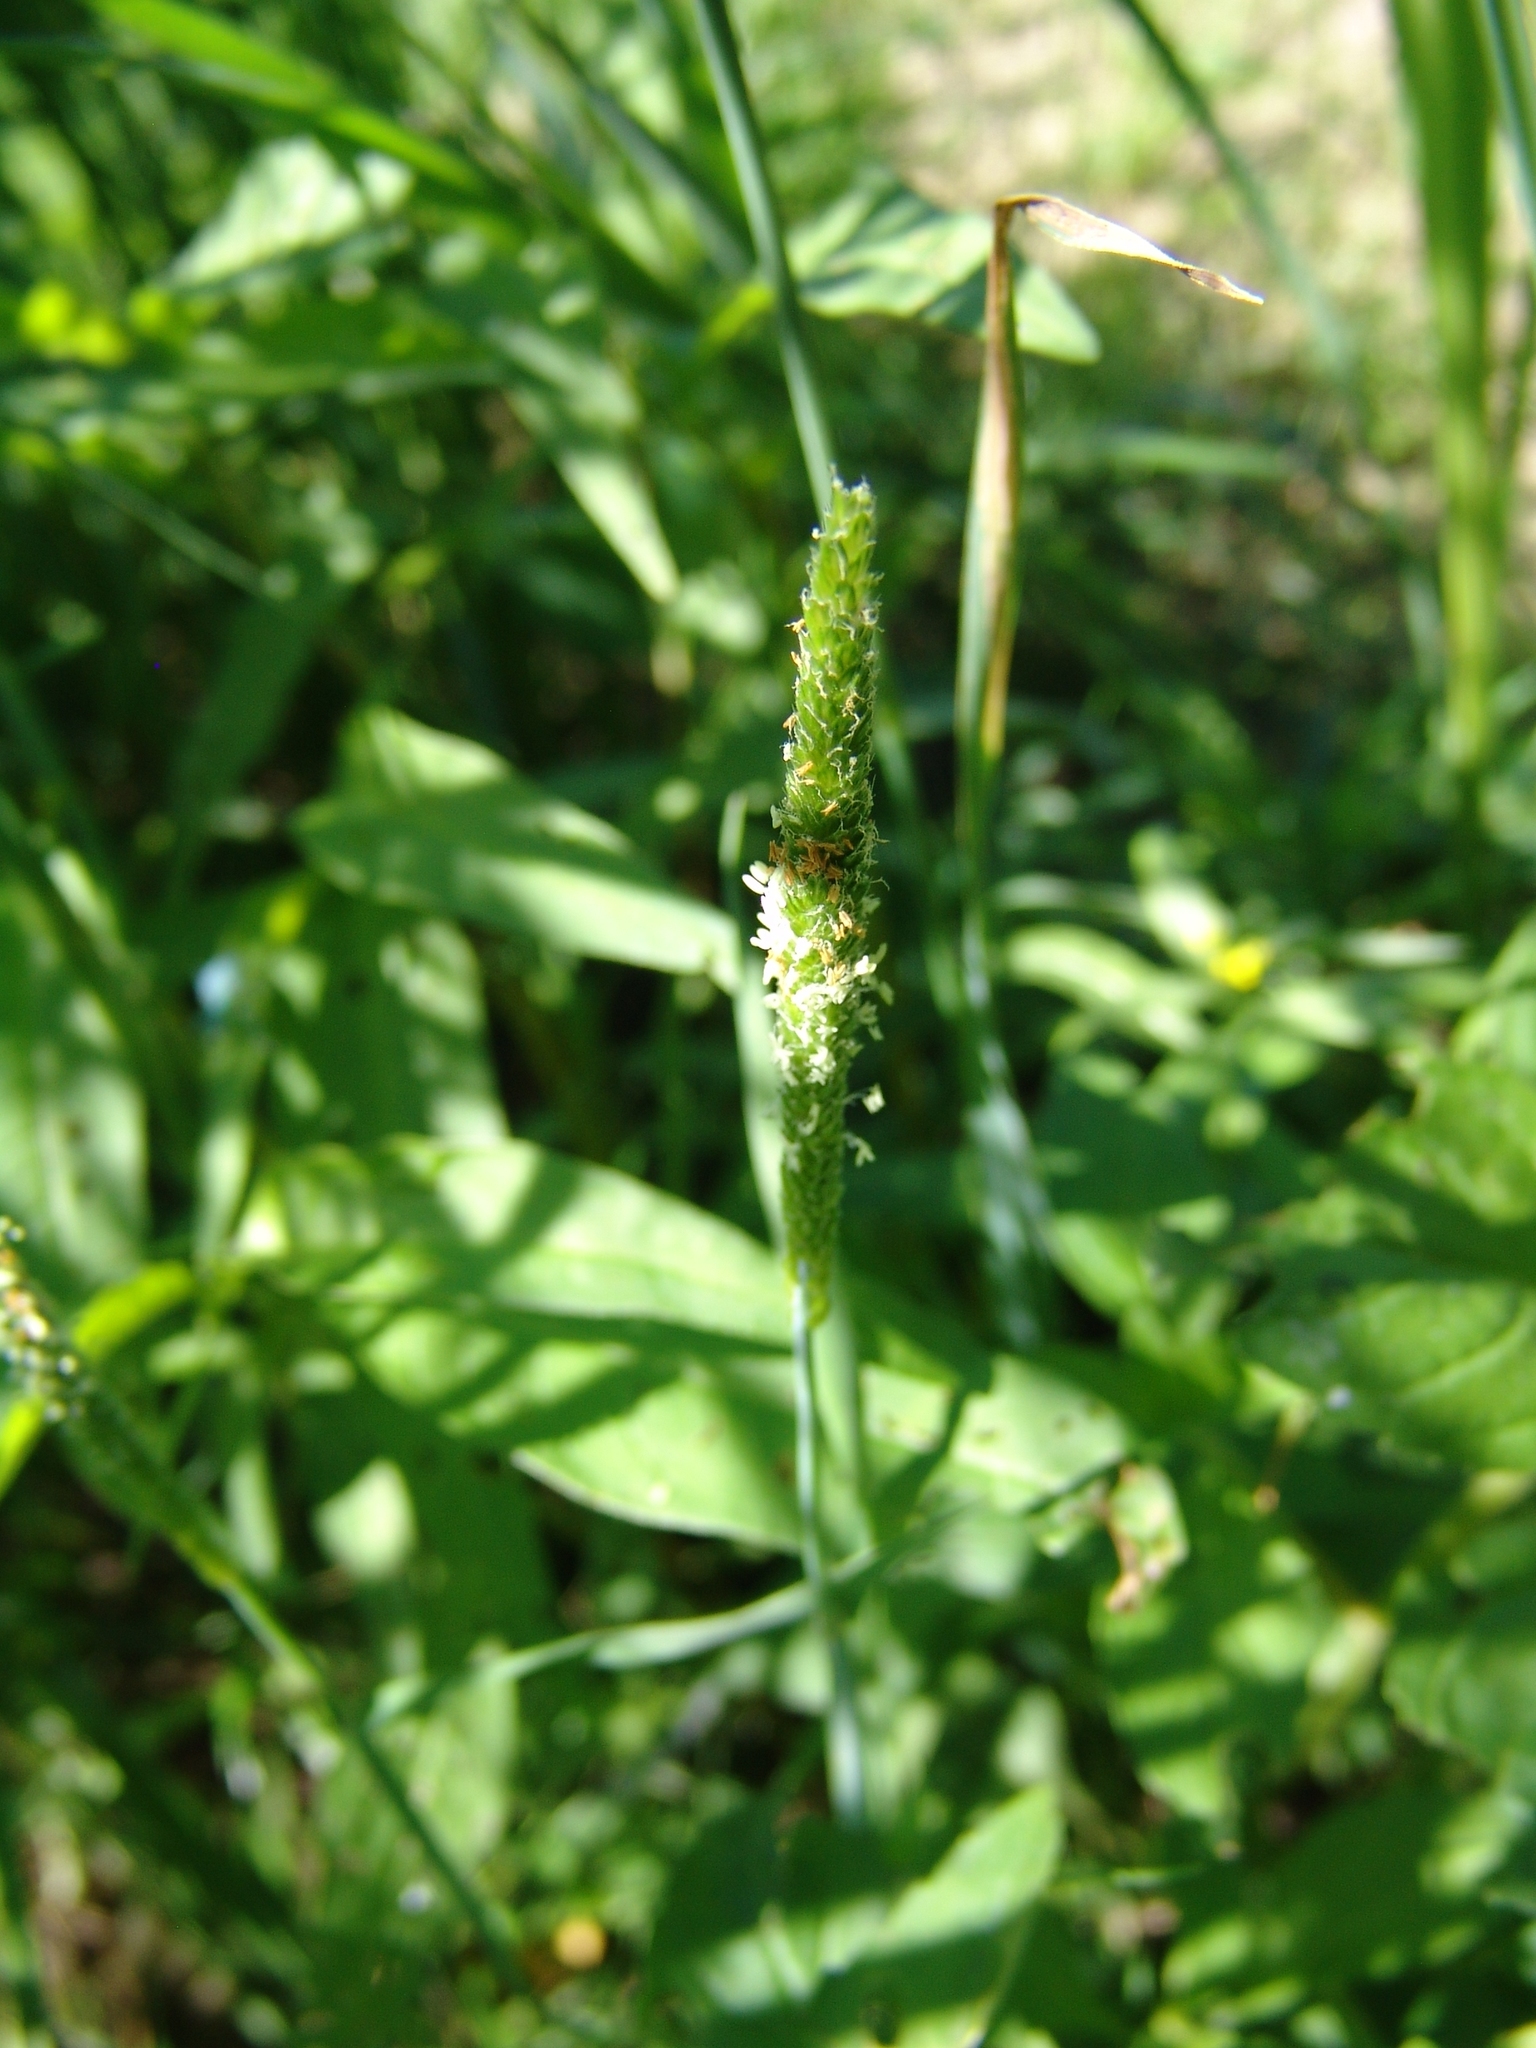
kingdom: Plantae
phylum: Tracheophyta
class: Liliopsida
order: Poales
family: Poaceae
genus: Alopecurus
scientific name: Alopecurus aequalis
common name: Orange foxtail
